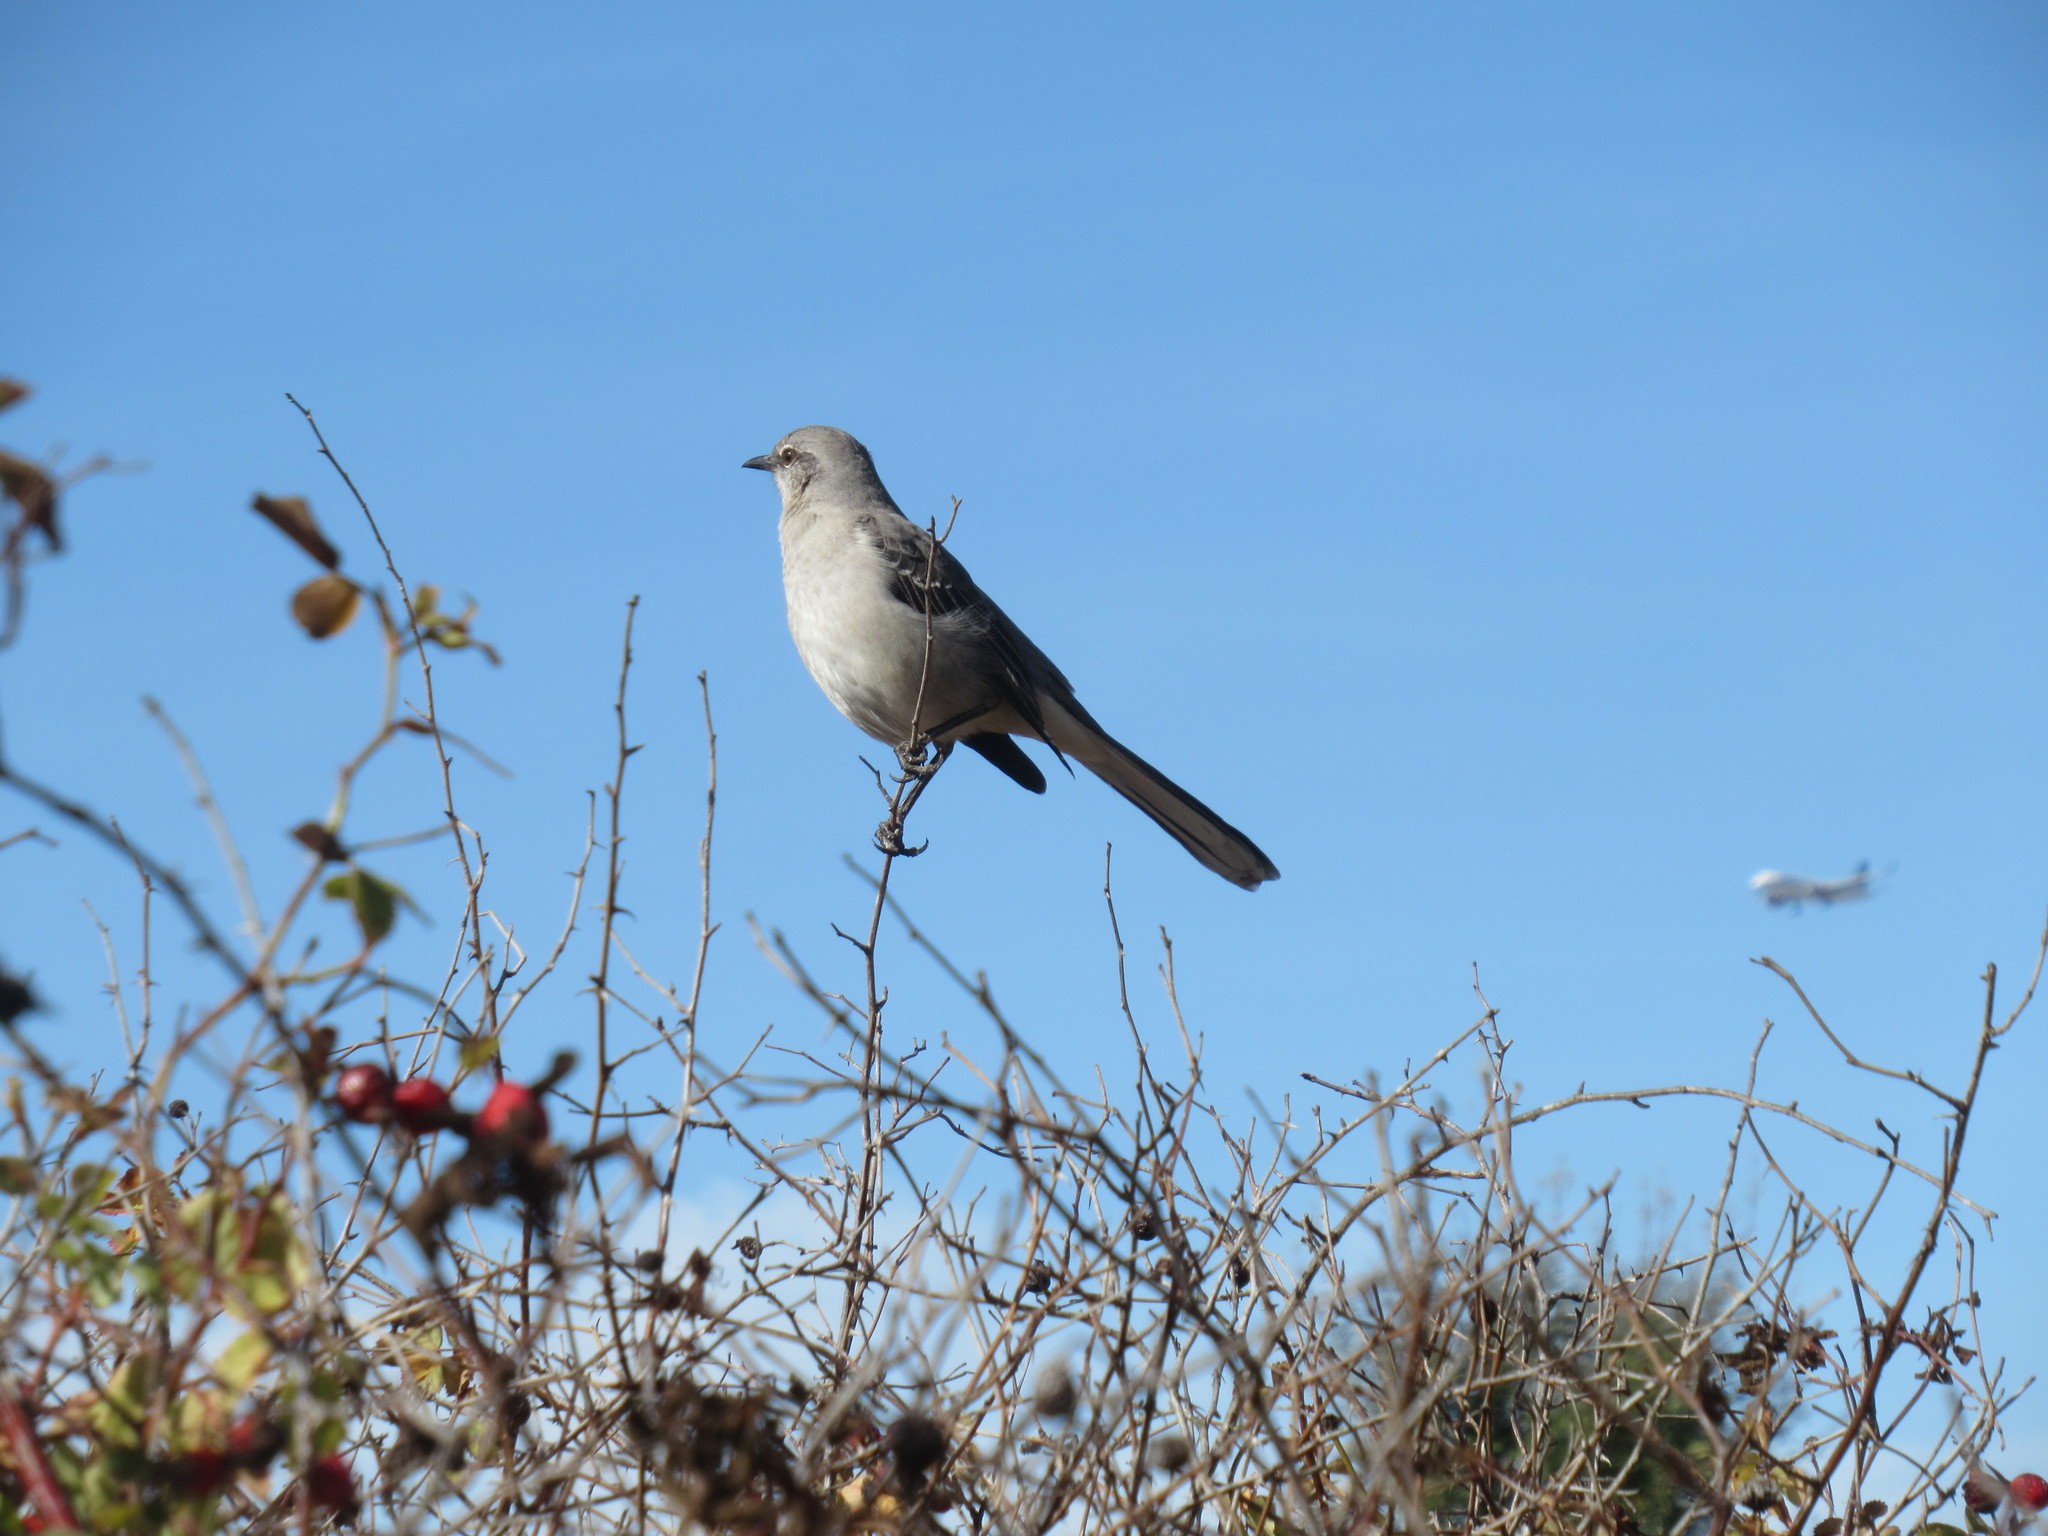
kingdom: Animalia
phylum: Chordata
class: Aves
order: Passeriformes
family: Mimidae
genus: Mimus
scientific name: Mimus polyglottos
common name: Northern mockingbird
